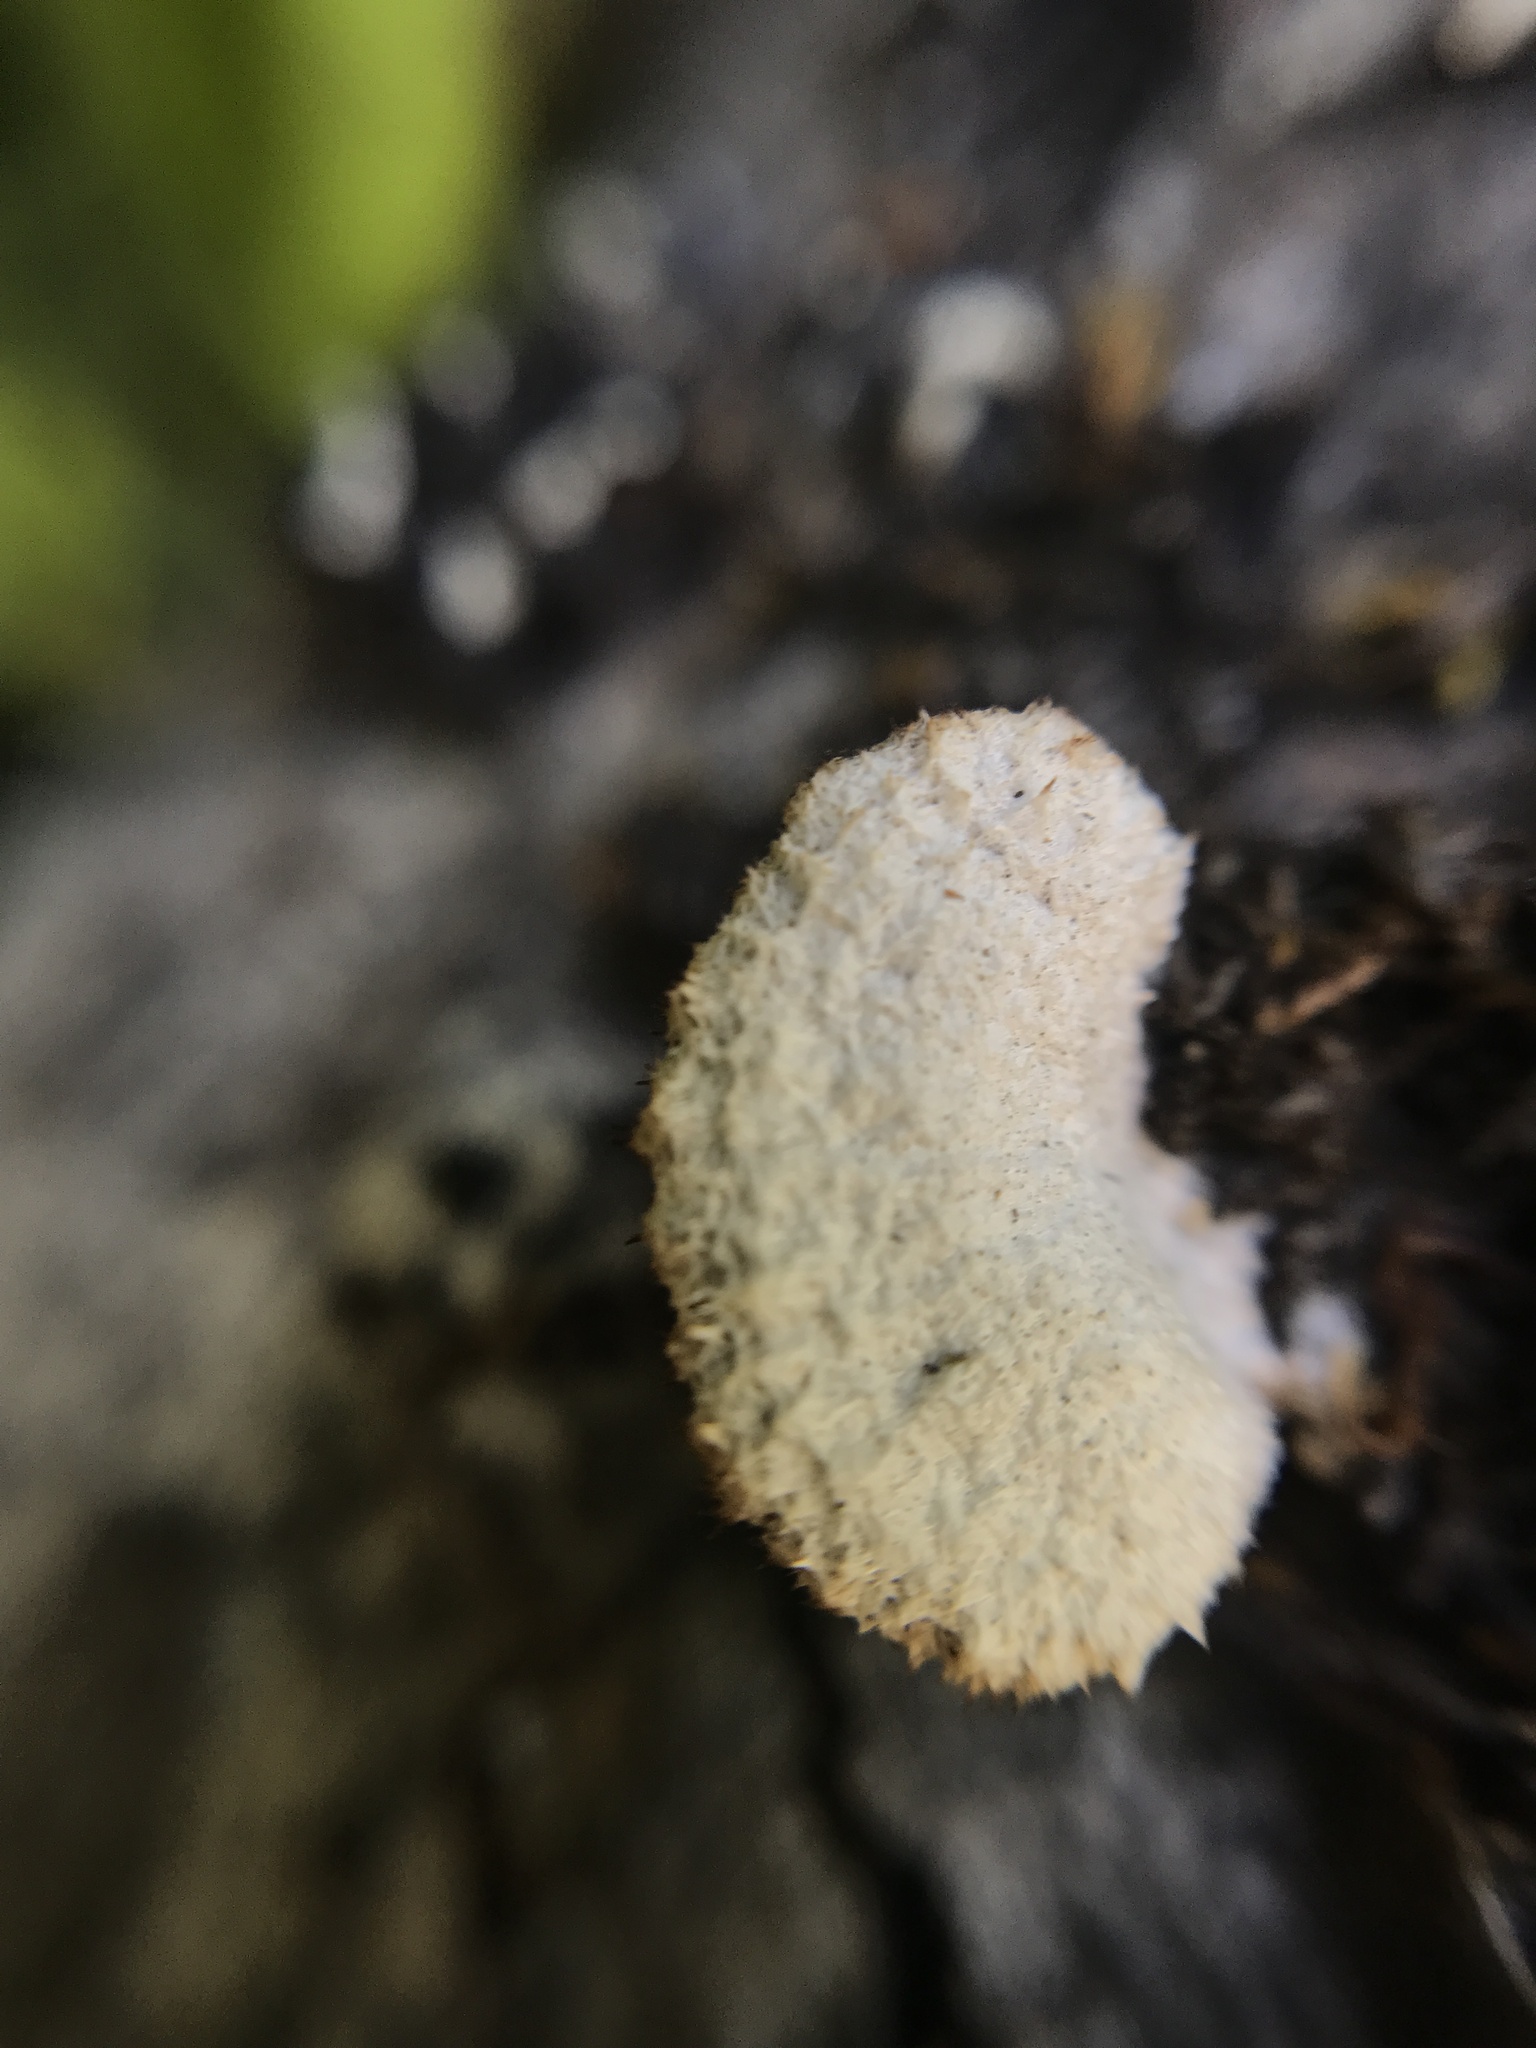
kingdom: Fungi
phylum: Basidiomycota
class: Agaricomycetes
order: Agaricales
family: Schizophyllaceae
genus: Schizophyllum
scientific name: Schizophyllum commune
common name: Common porecrust
